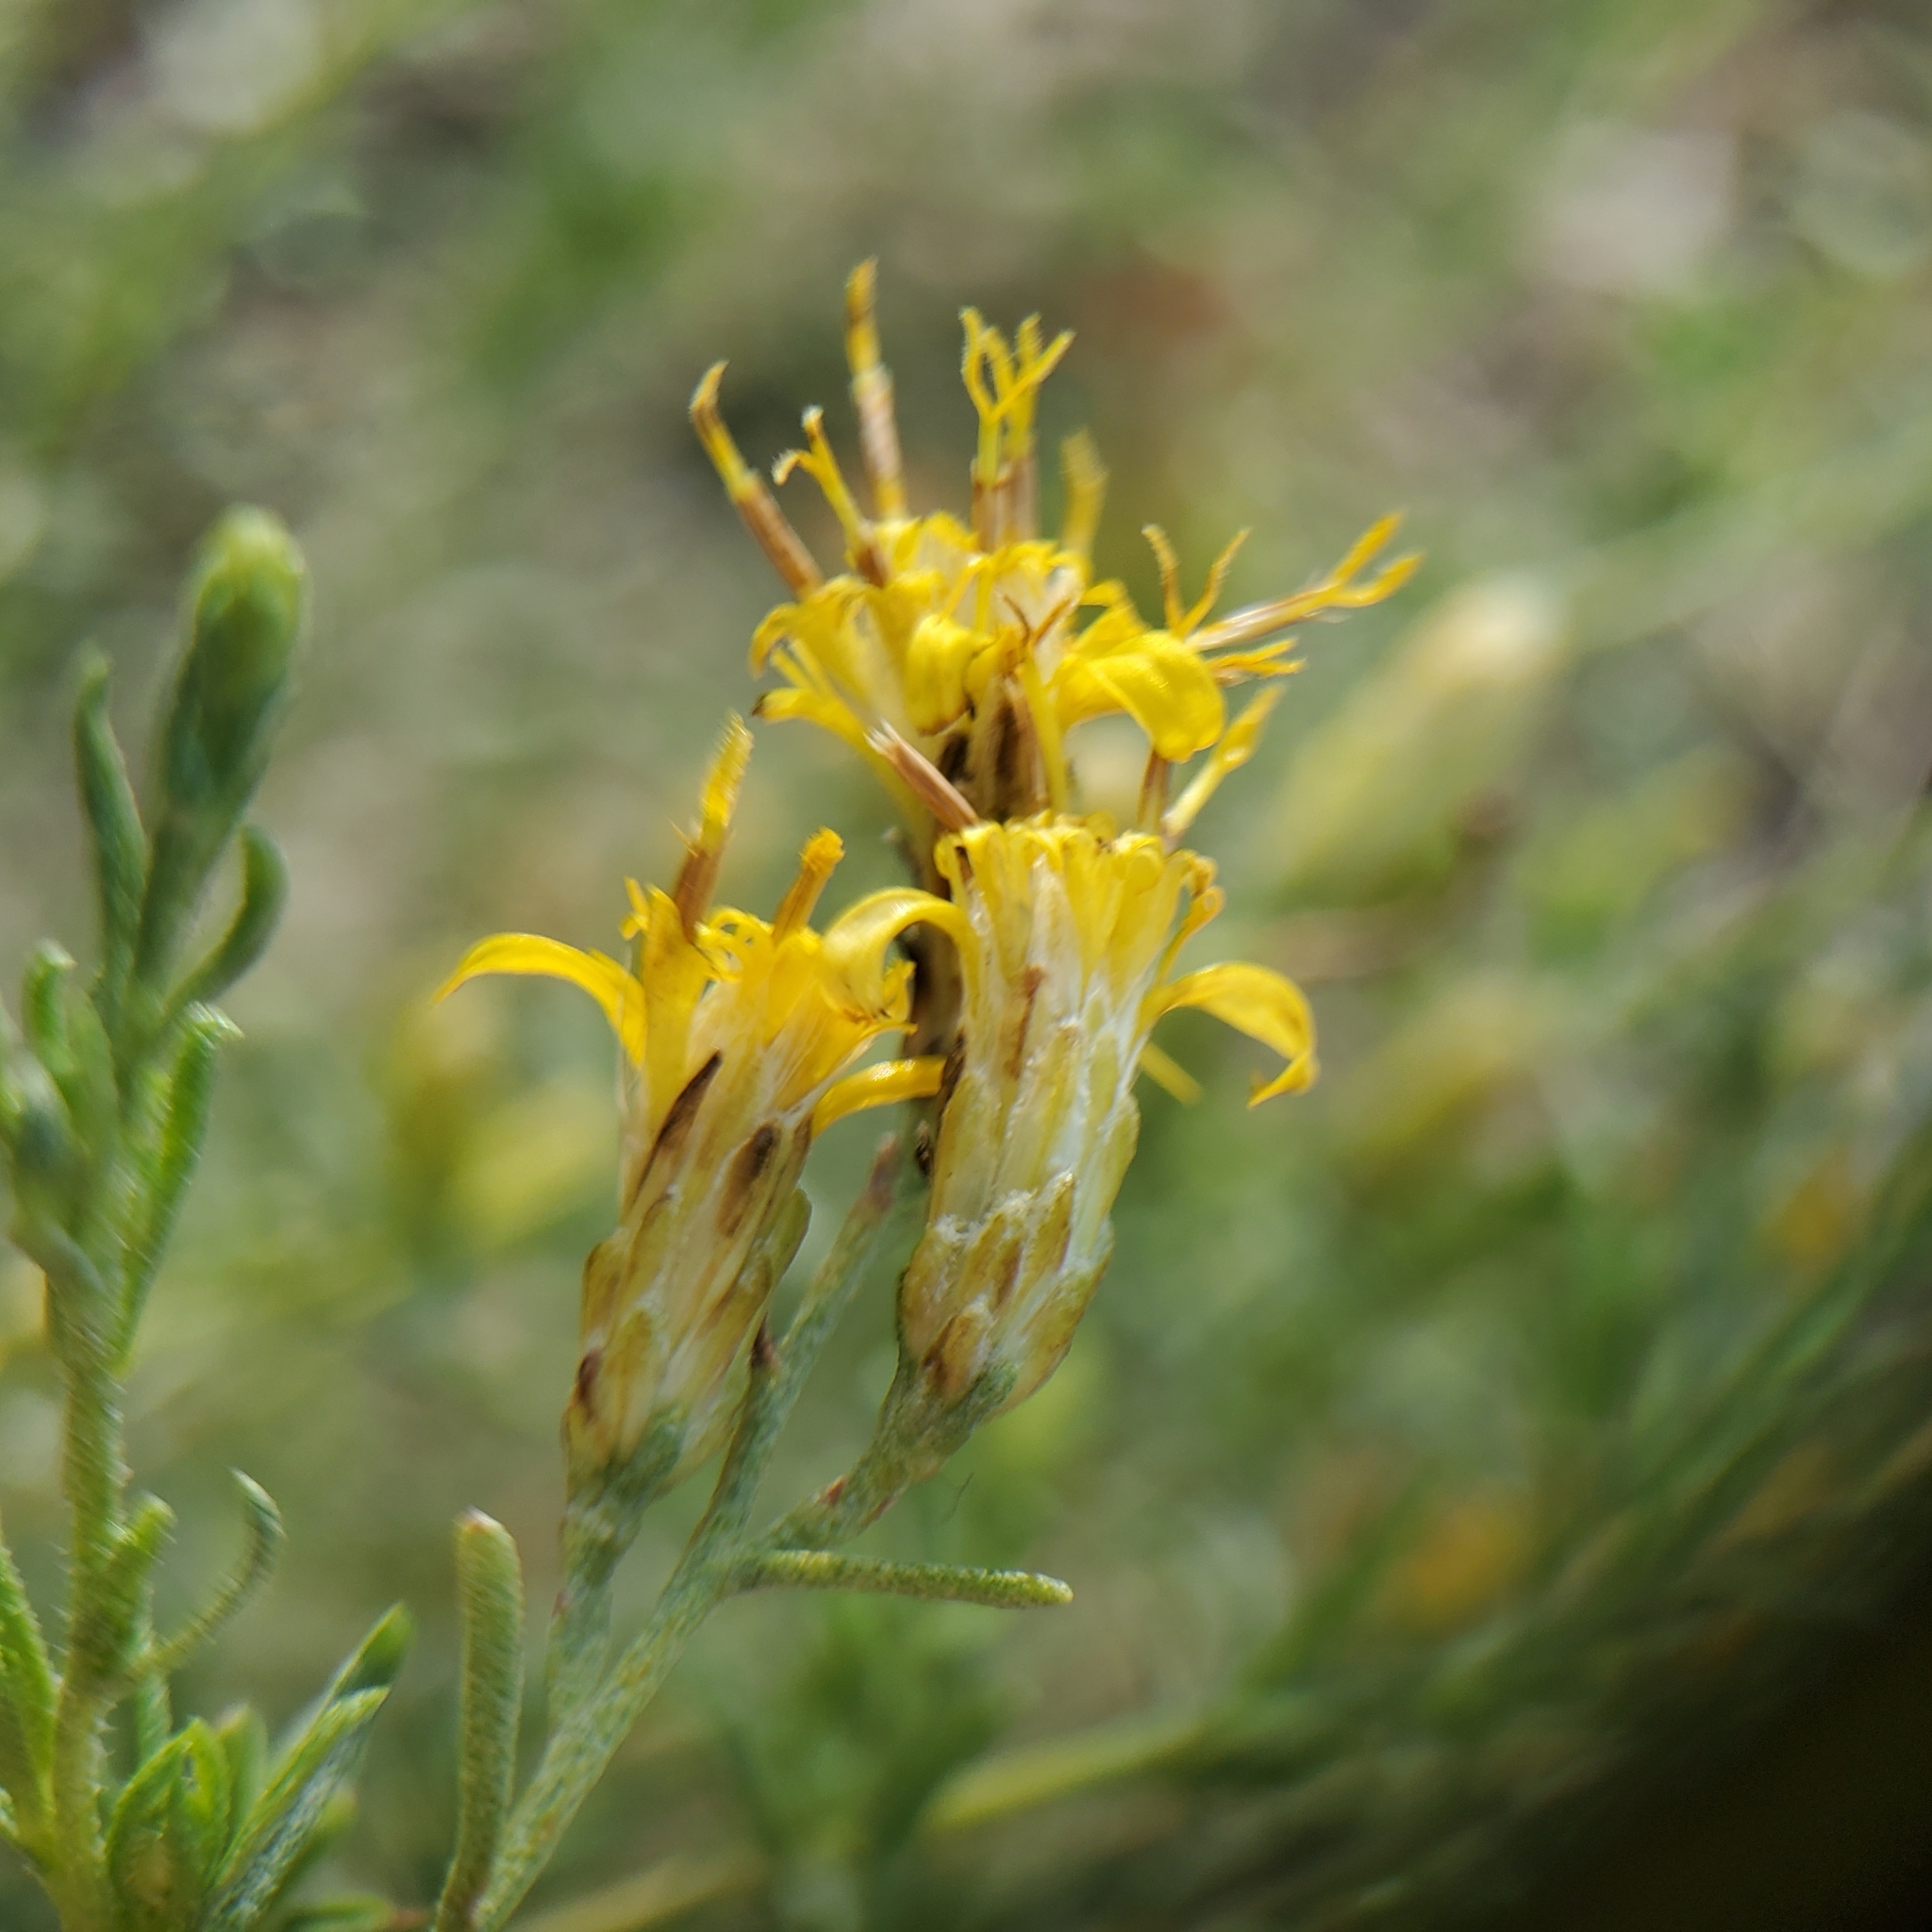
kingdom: Plantae
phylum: Tracheophyta
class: Magnoliopsida
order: Asterales
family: Asteraceae
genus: Ericameria
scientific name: Ericameria palmeri
